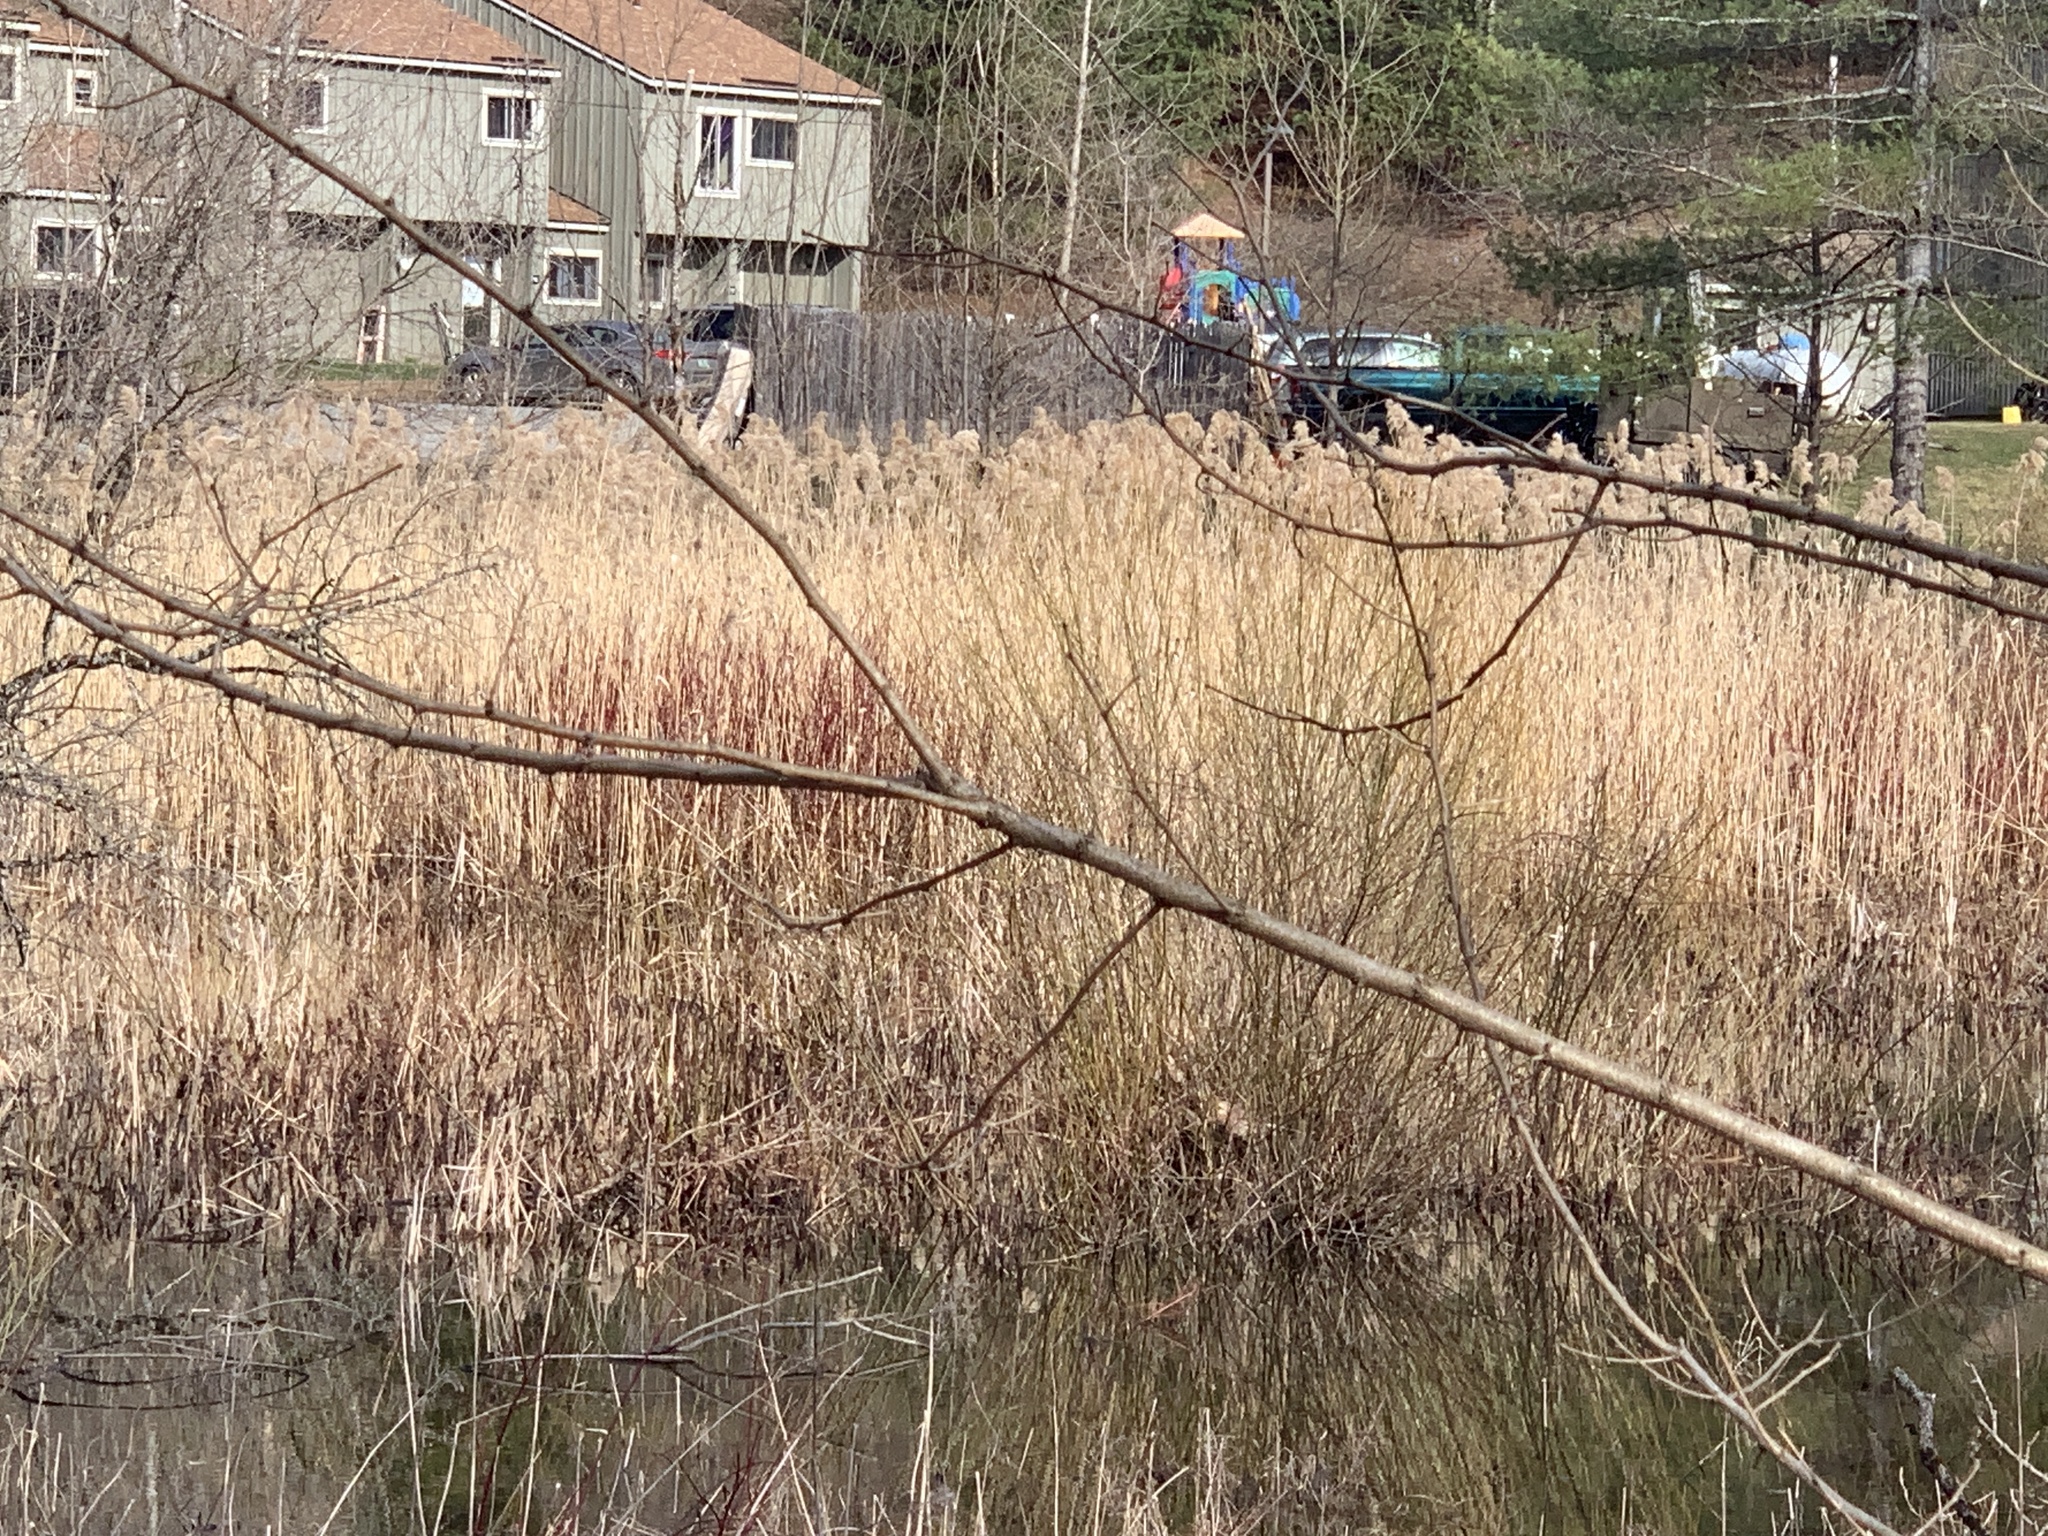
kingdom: Plantae
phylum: Tracheophyta
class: Liliopsida
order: Poales
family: Poaceae
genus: Phragmites
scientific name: Phragmites australis
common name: Common reed
